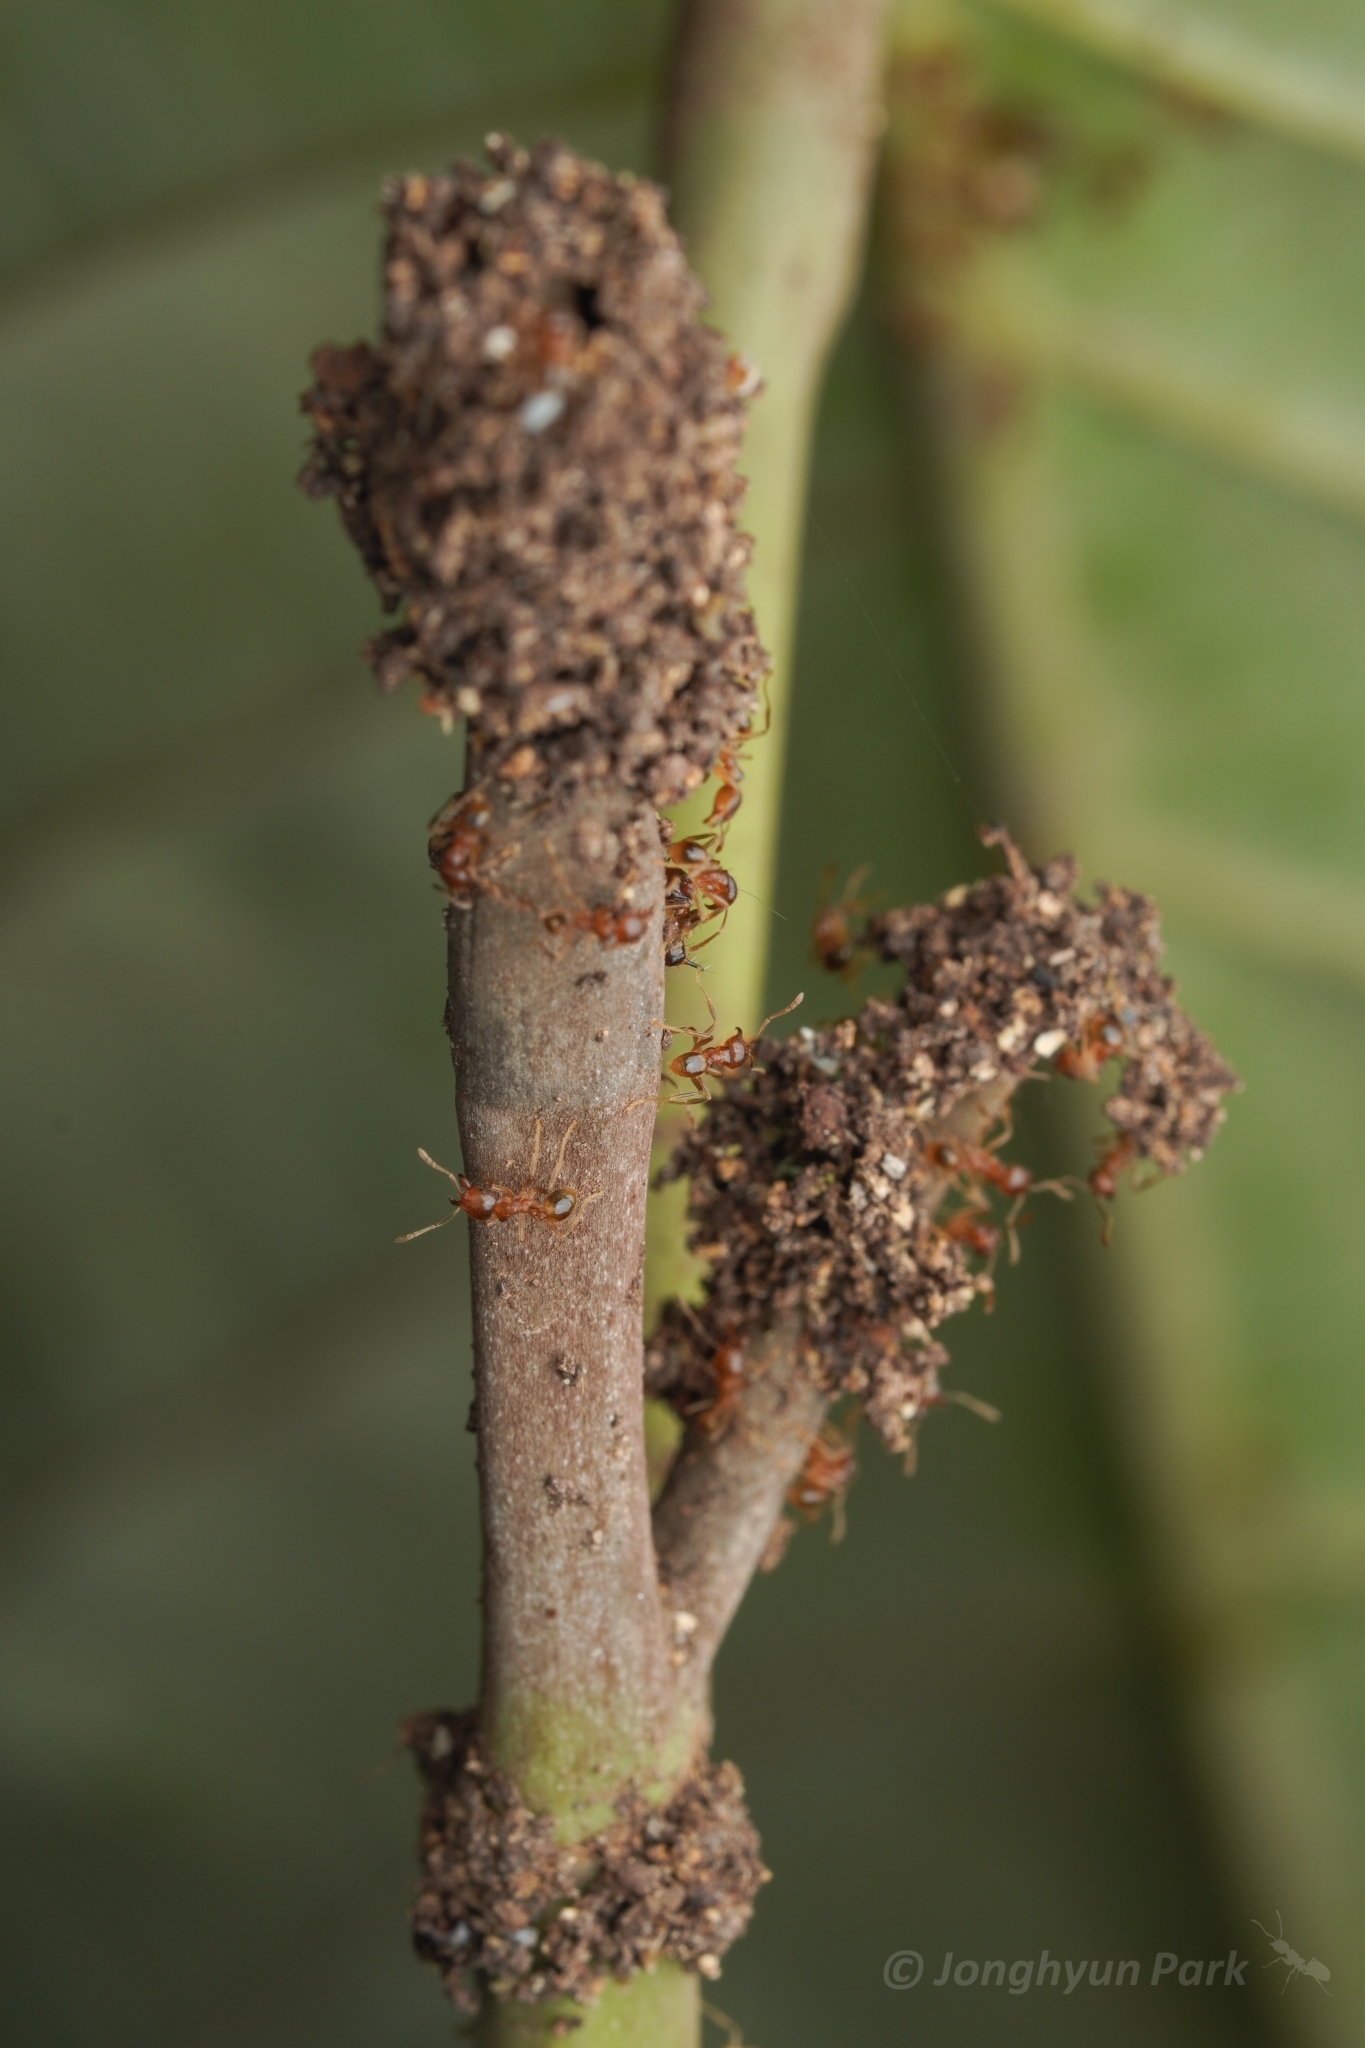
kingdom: Animalia
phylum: Arthropoda
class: Insecta
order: Hymenoptera
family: Formicidae
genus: Lophomyrmex
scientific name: Lophomyrmex longicornis
